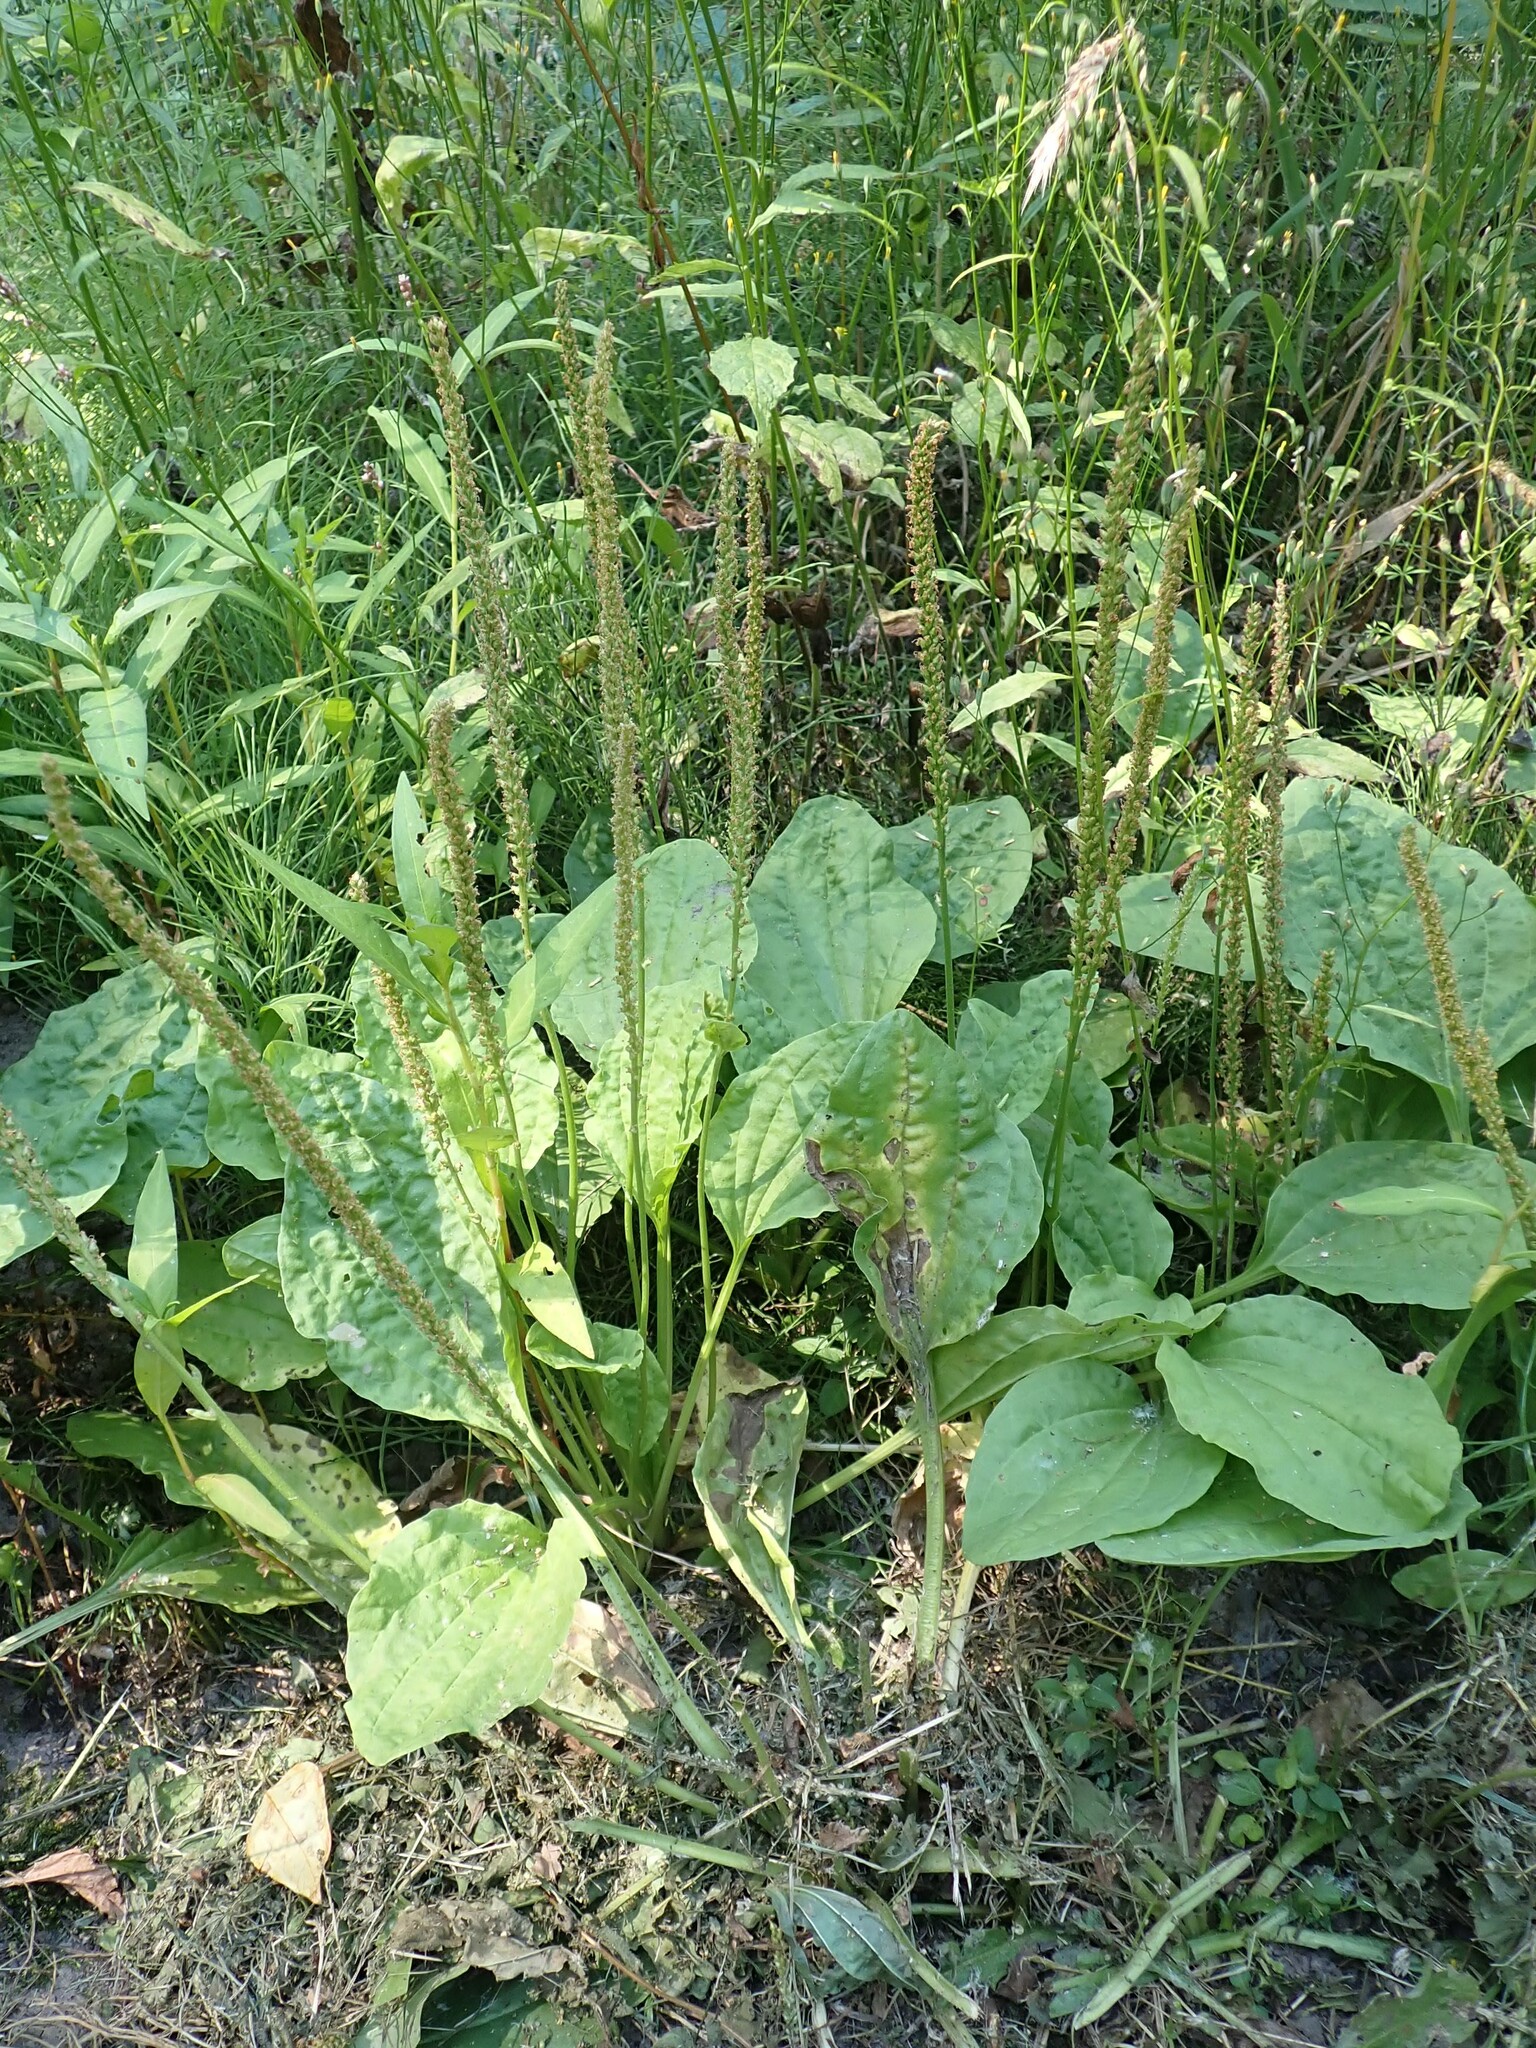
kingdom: Plantae
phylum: Tracheophyta
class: Magnoliopsida
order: Lamiales
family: Plantaginaceae
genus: Plantago
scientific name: Plantago major
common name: Common plantain
